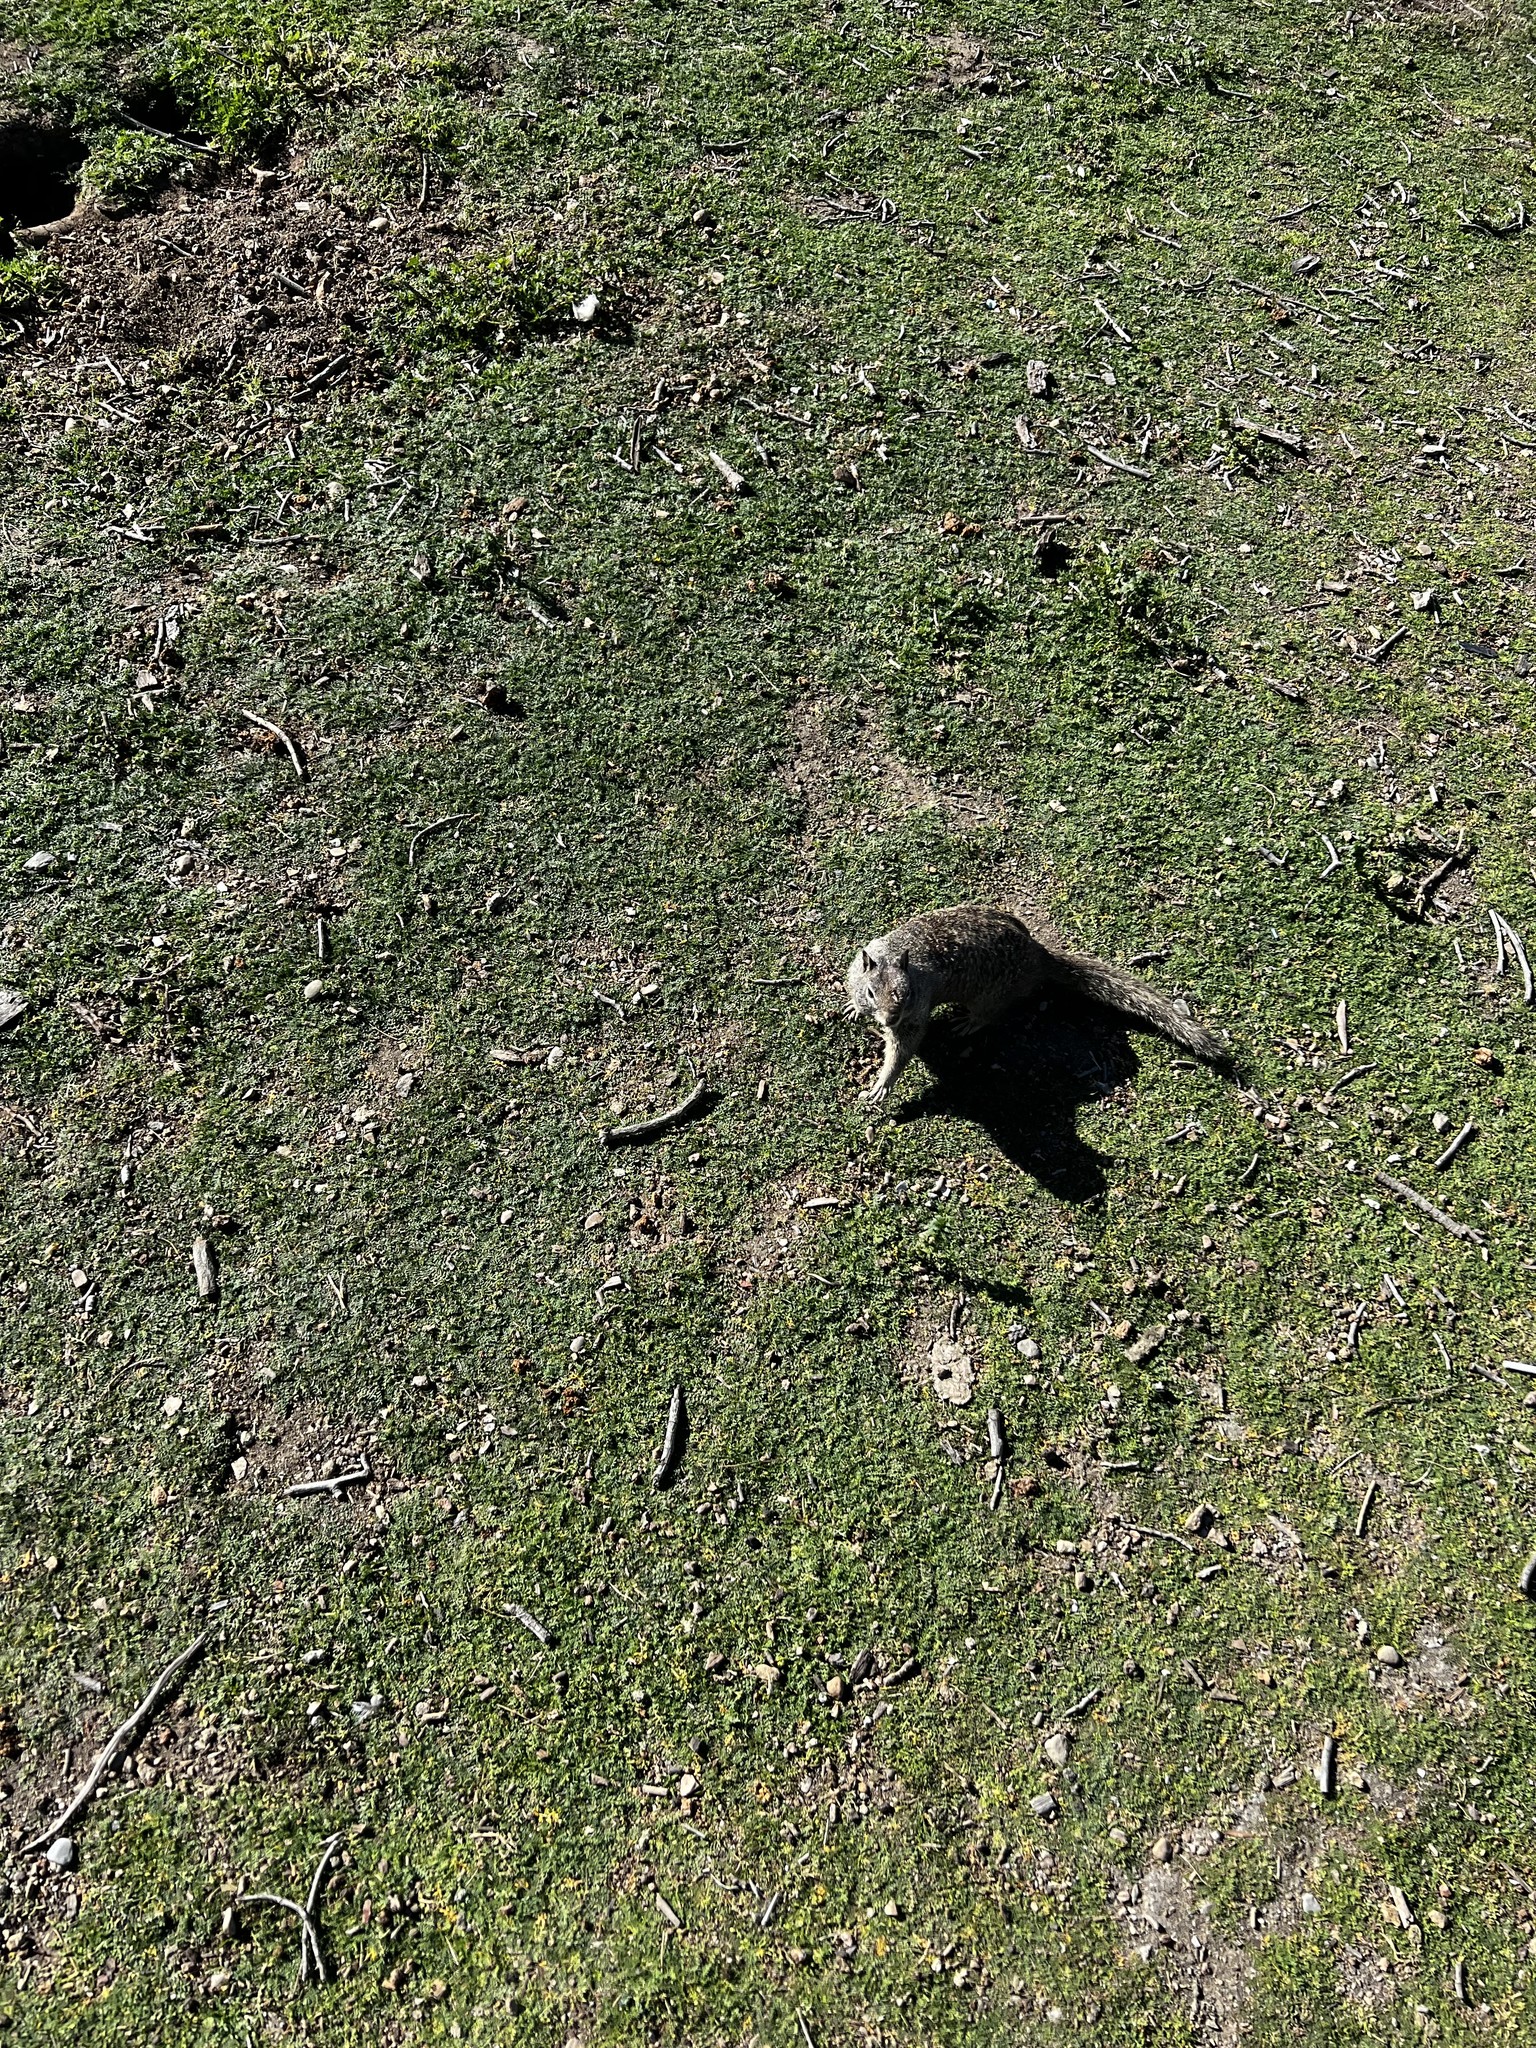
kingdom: Animalia
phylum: Chordata
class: Mammalia
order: Rodentia
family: Sciuridae
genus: Otospermophilus
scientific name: Otospermophilus beecheyi
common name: California ground squirrel
